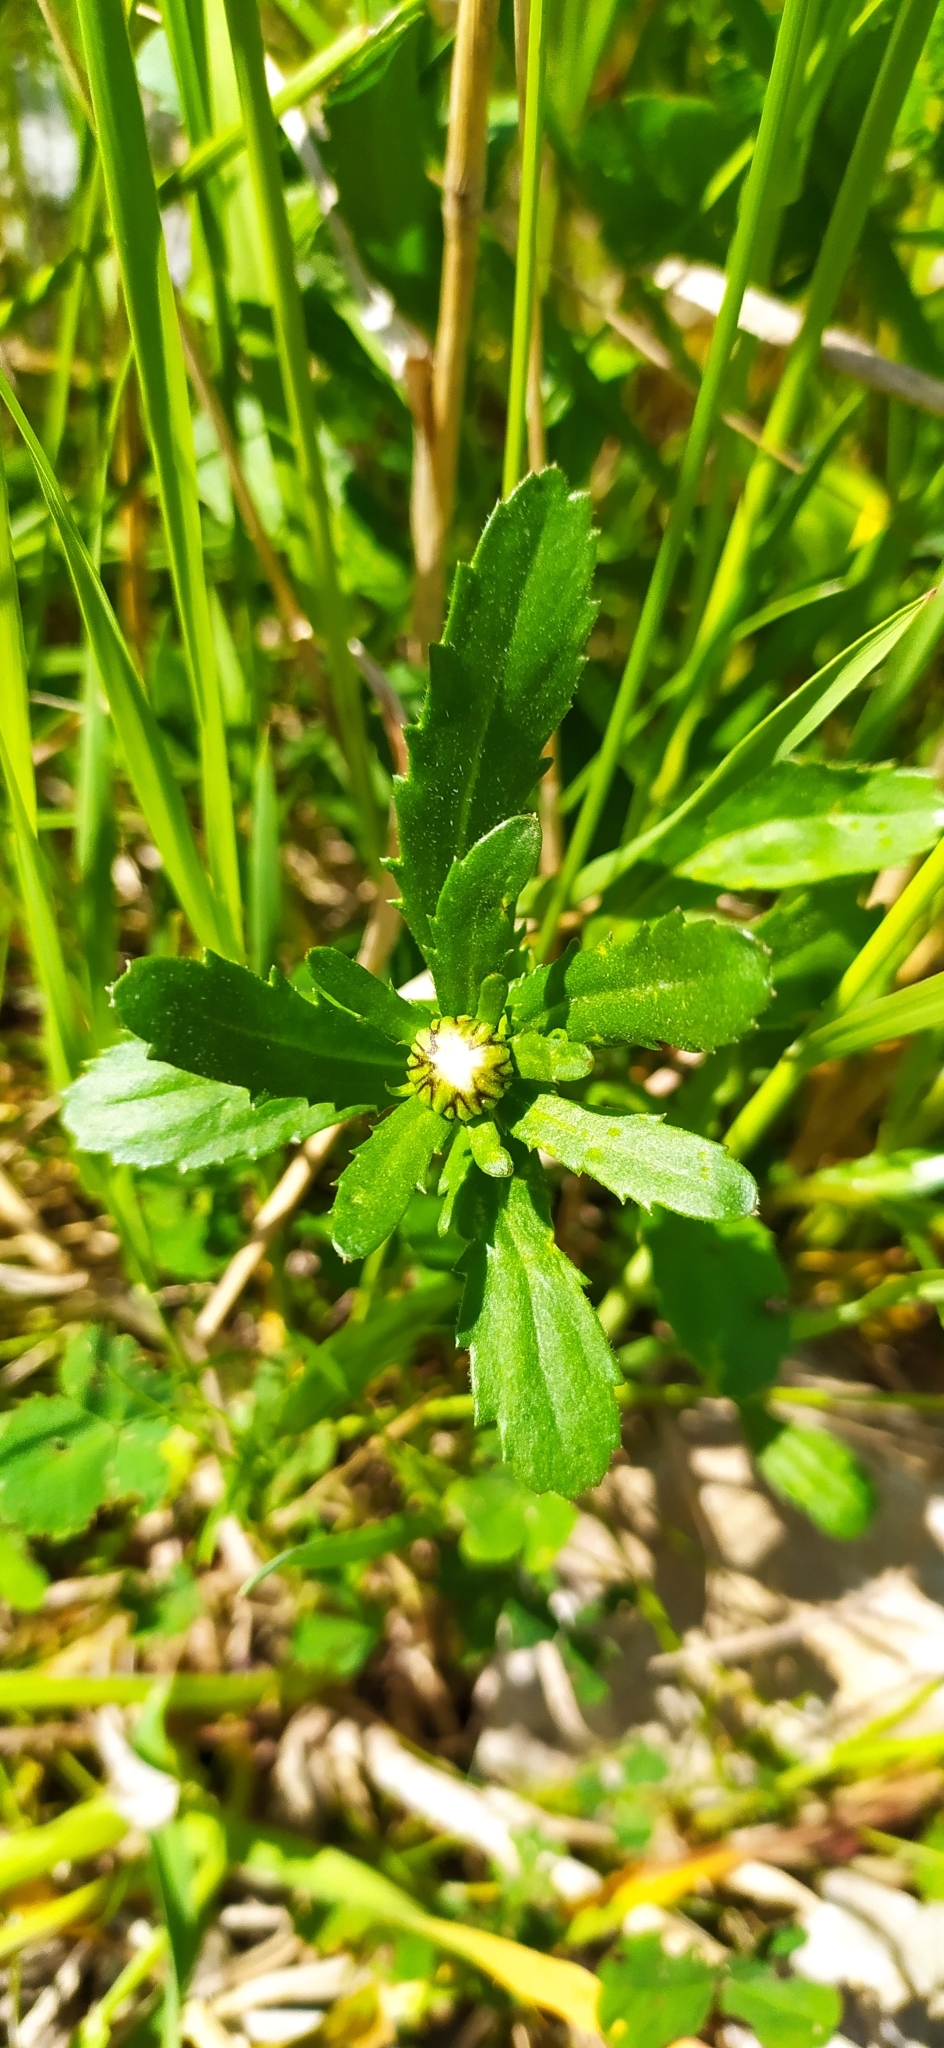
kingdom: Plantae
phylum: Tracheophyta
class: Magnoliopsida
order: Asterales
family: Asteraceae
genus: Leucanthemum
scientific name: Leucanthemum ircutianum
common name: Daisy
